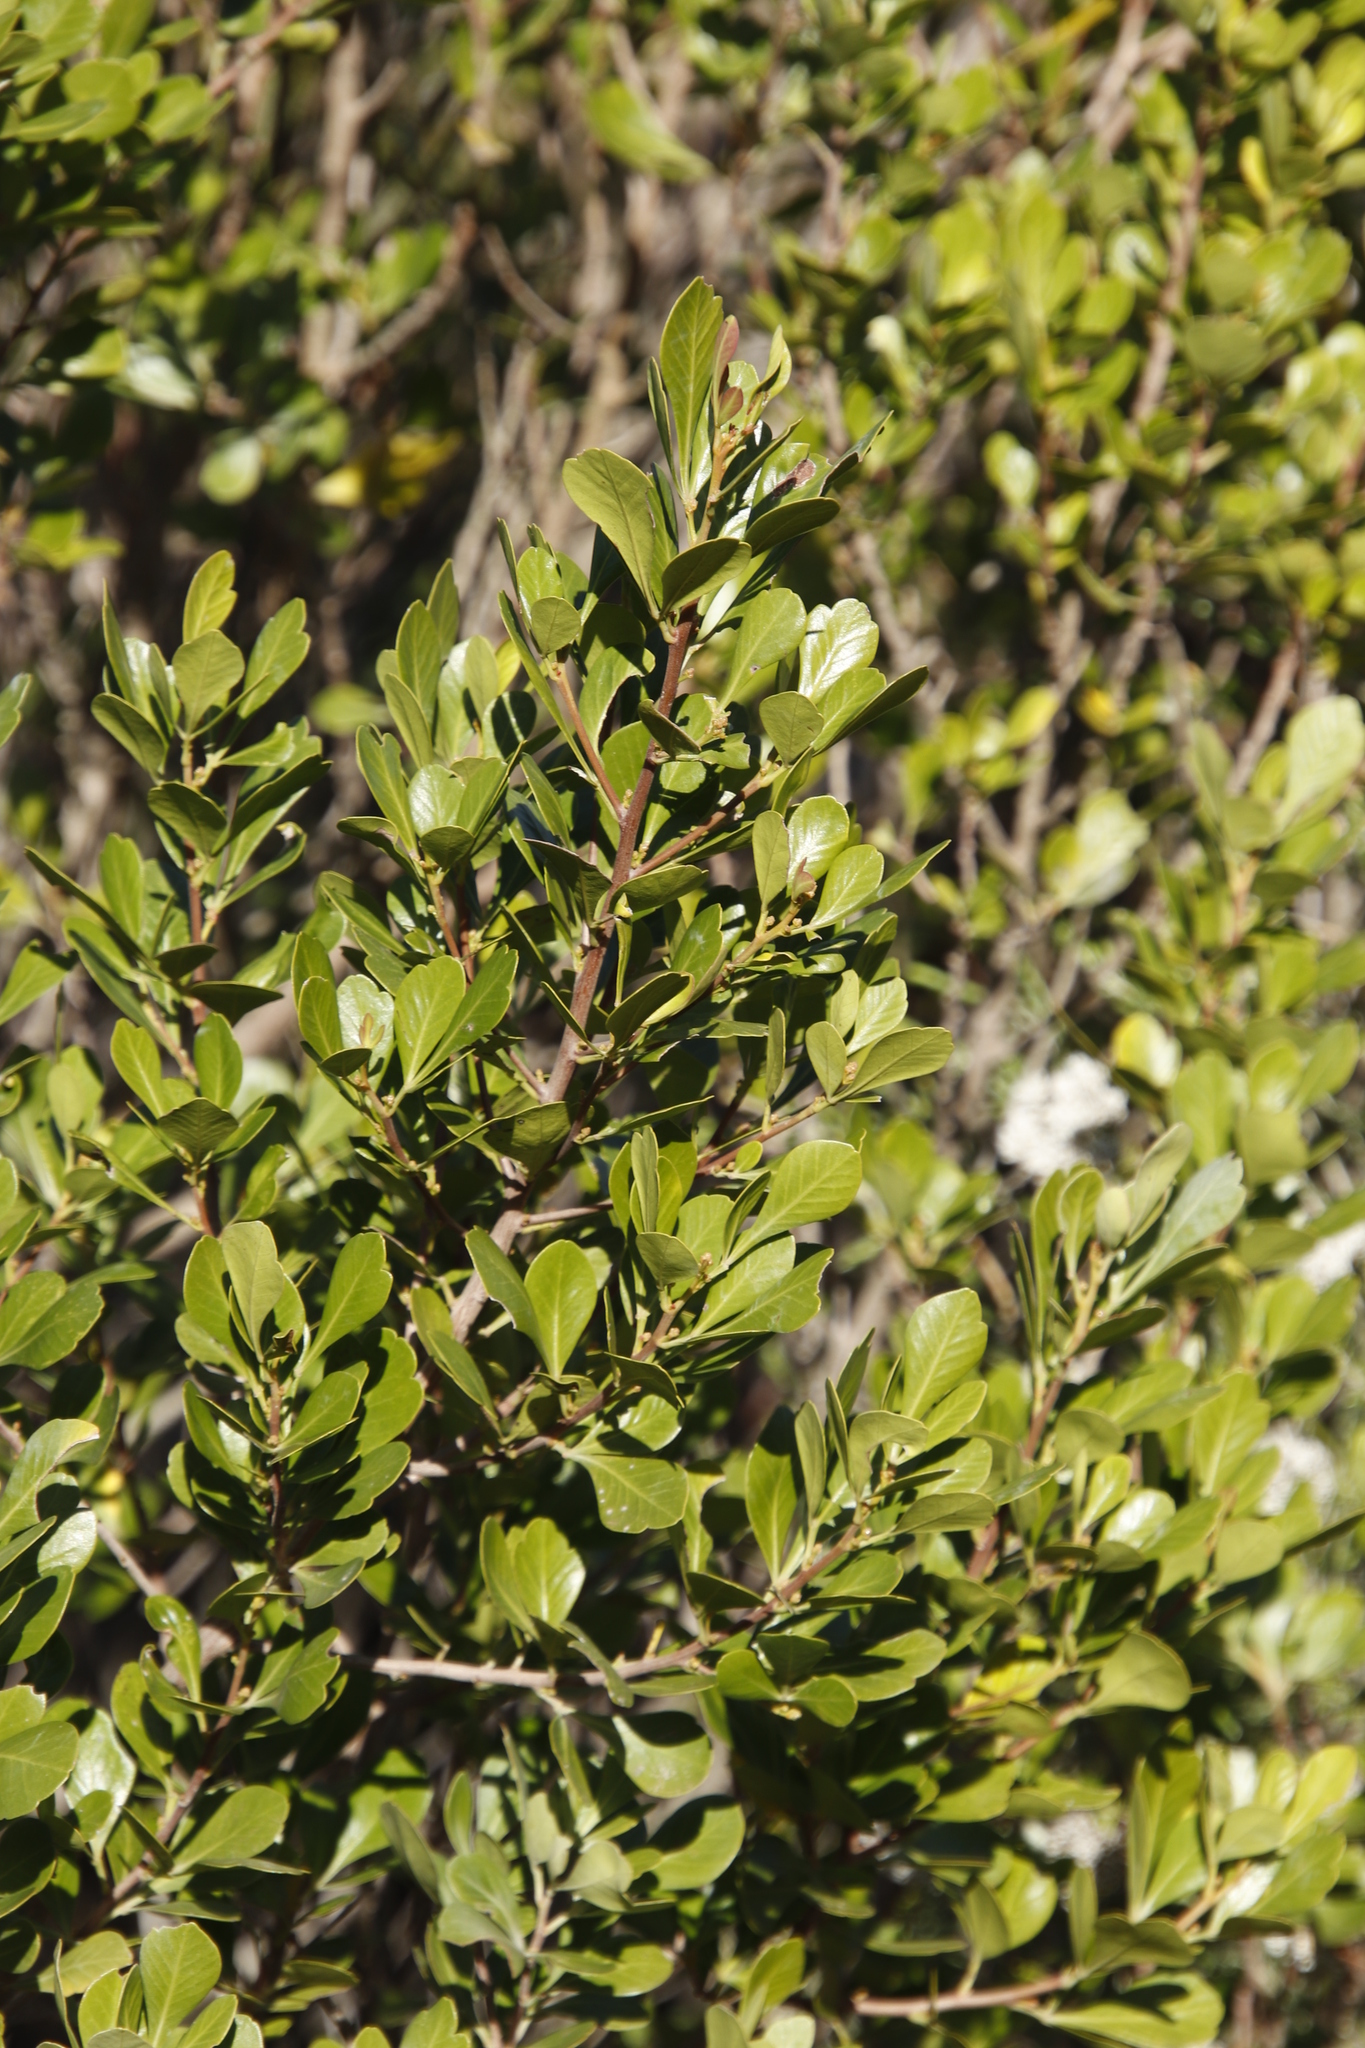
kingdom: Plantae
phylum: Tracheophyta
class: Magnoliopsida
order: Sapindales
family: Anacardiaceae
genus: Searsia
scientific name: Searsia lucida
